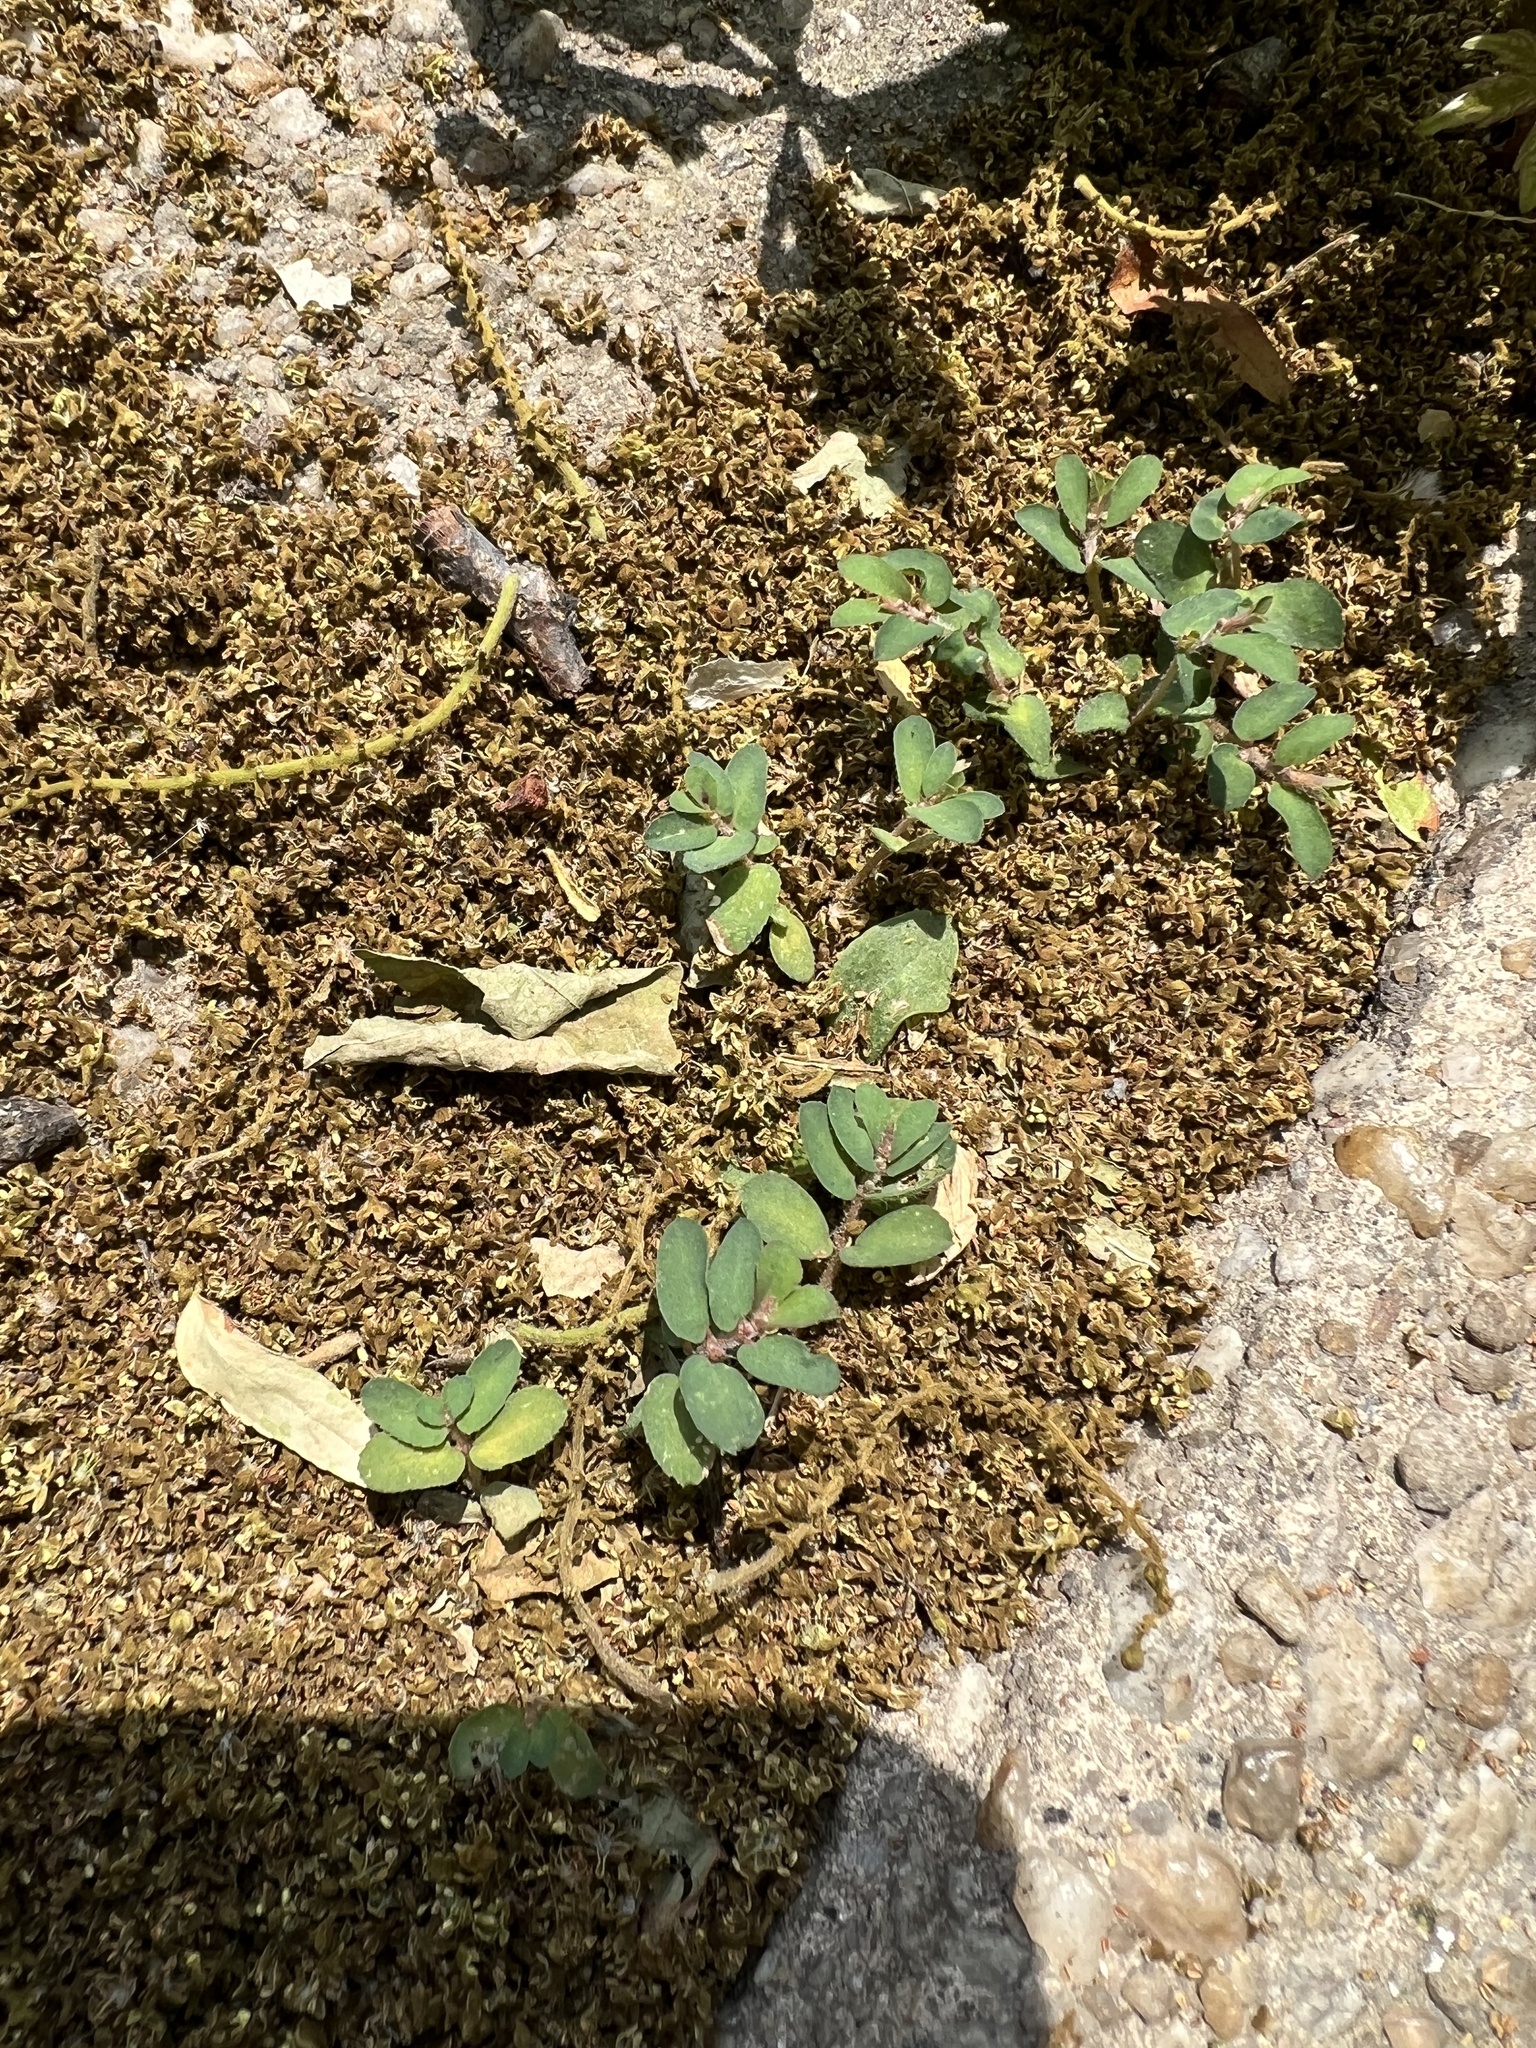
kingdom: Plantae
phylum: Tracheophyta
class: Magnoliopsida
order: Malpighiales
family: Euphorbiaceae
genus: Euphorbia
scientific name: Euphorbia maculata
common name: Spotted spurge
